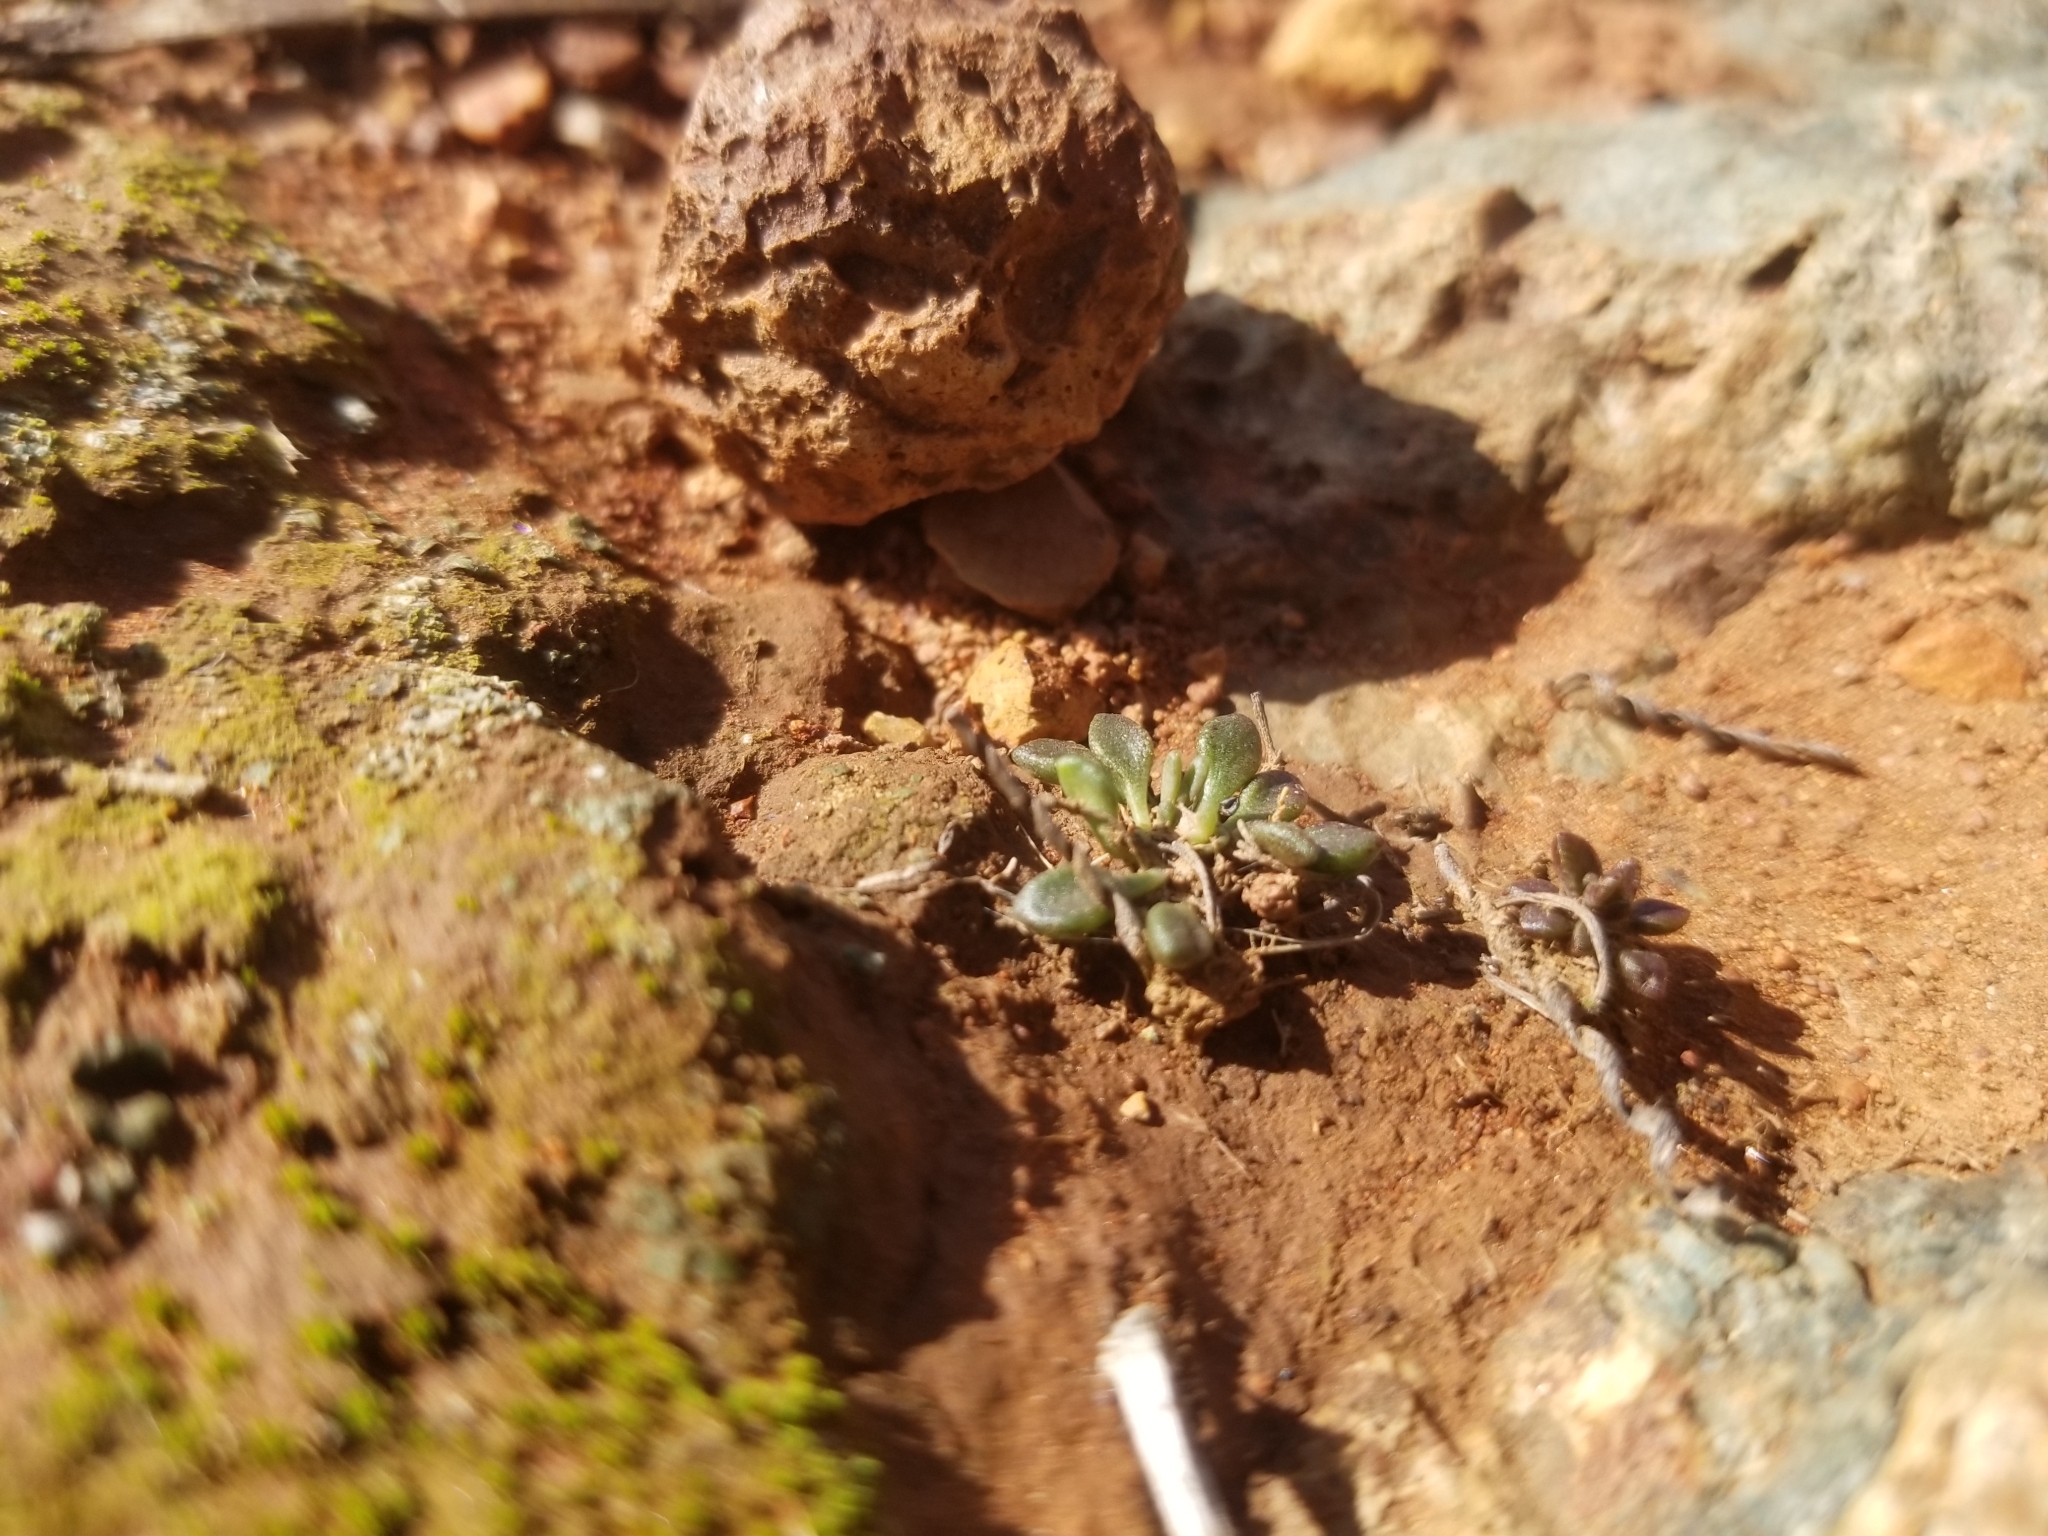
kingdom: Plantae
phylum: Tracheophyta
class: Magnoliopsida
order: Saxifragales
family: Crassulaceae
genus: Dudleya
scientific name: Dudleya variegata
